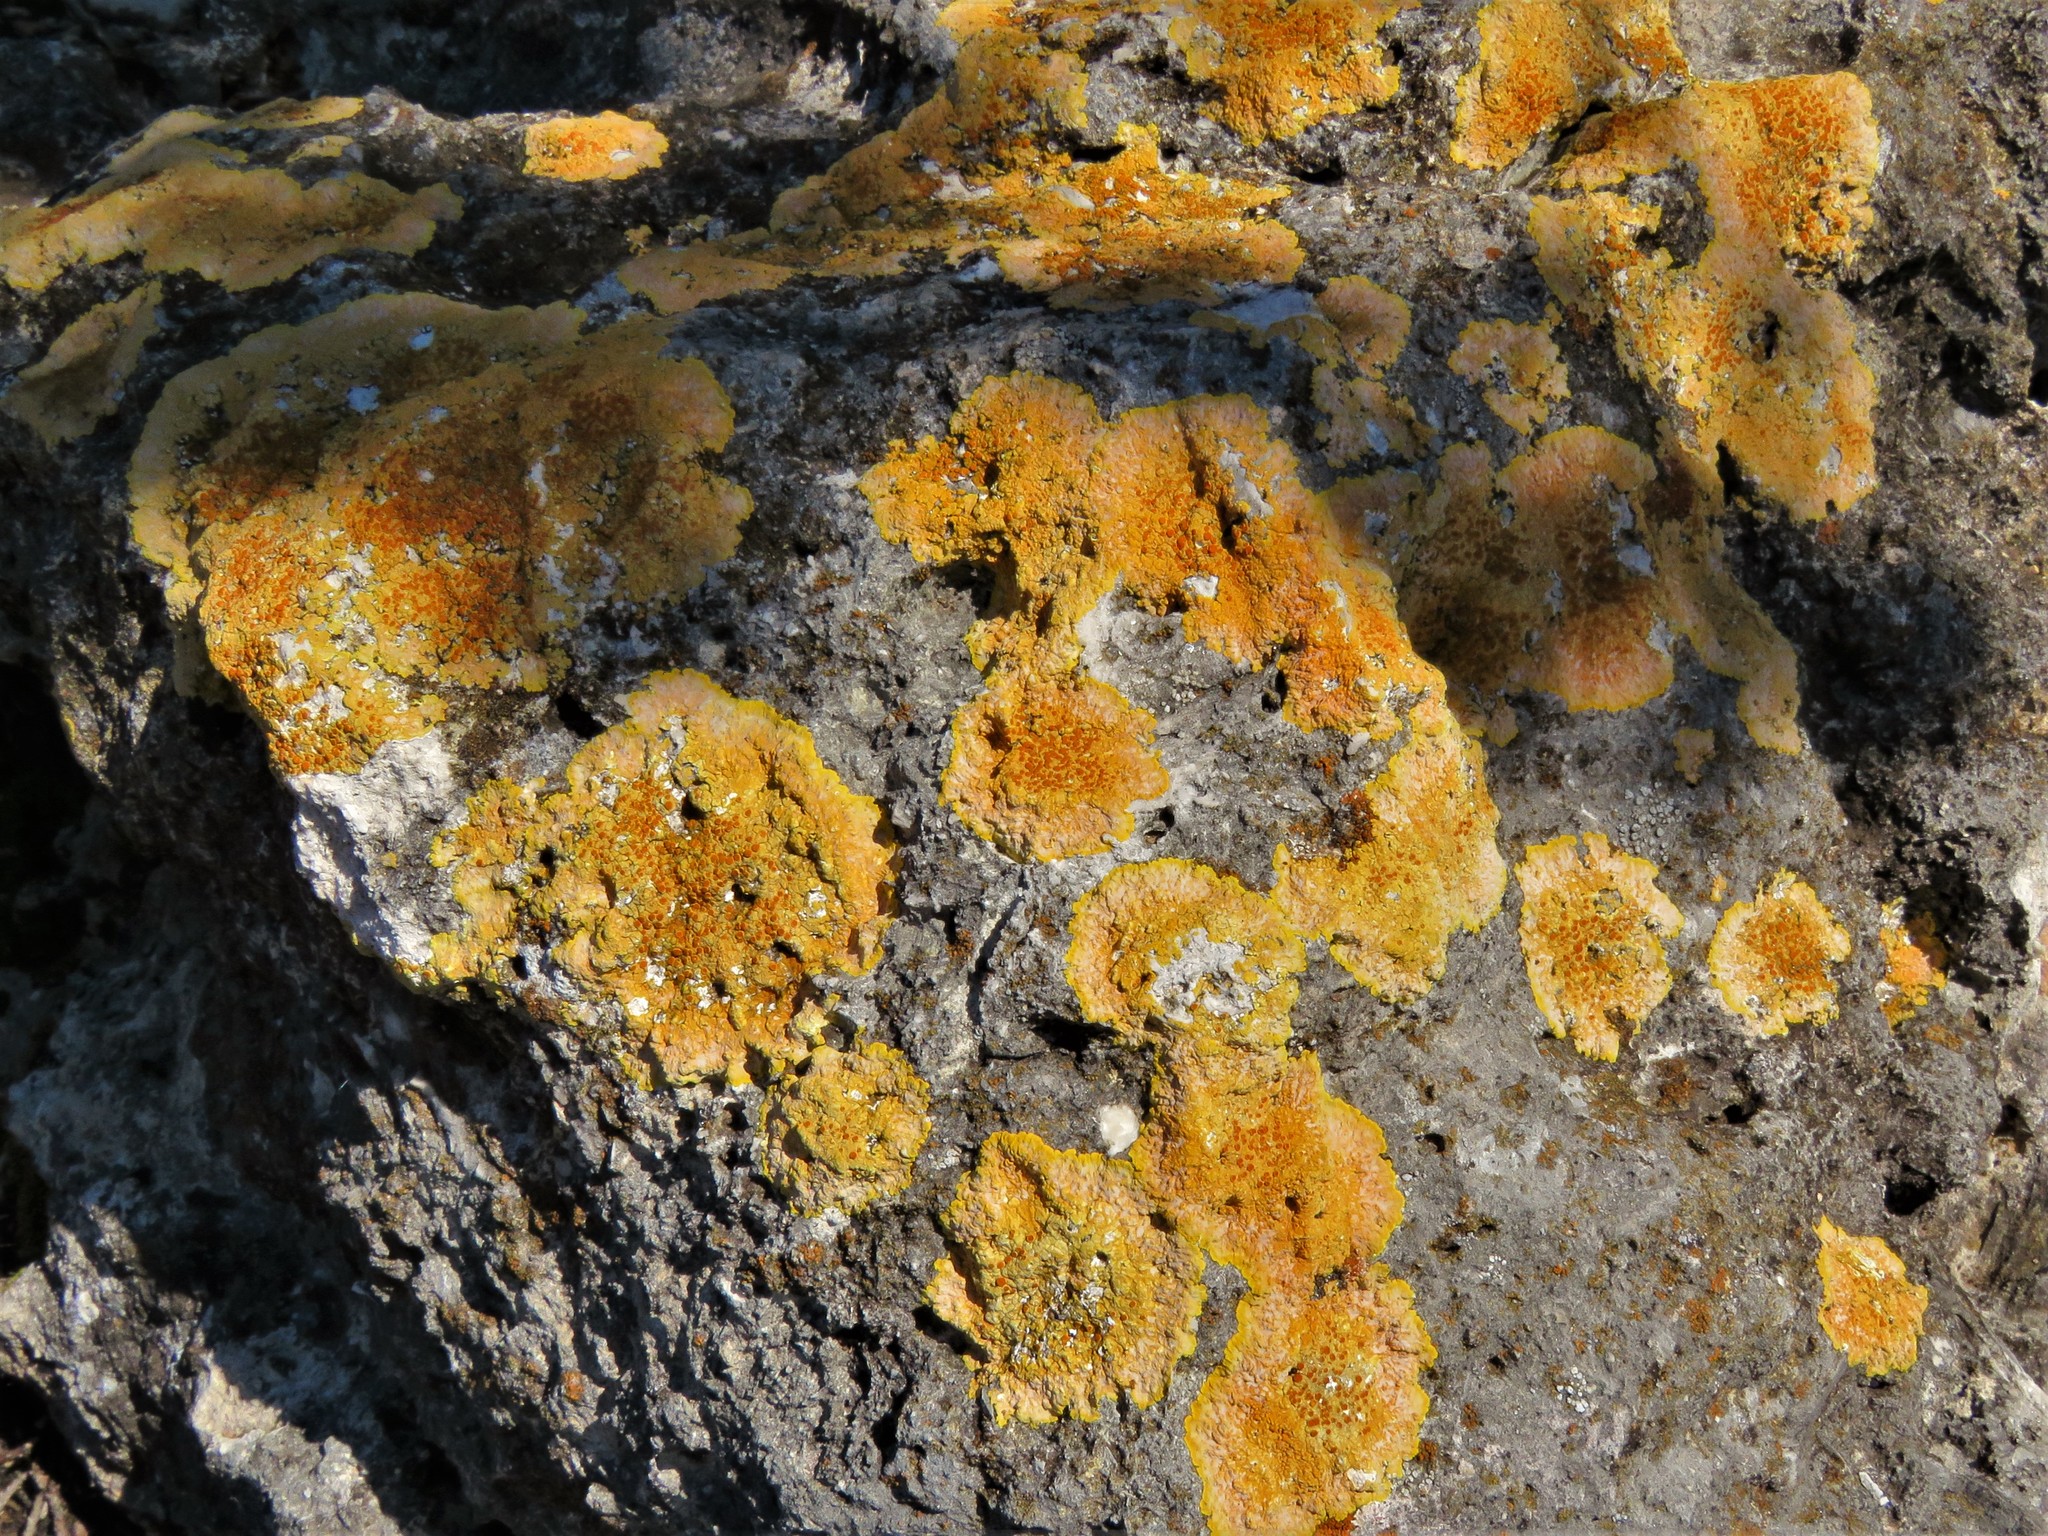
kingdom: Fungi
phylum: Ascomycota
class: Lecanoromycetes
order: Teloschistales
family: Teloschistaceae
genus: Caloplaca
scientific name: Caloplaca eugyra
